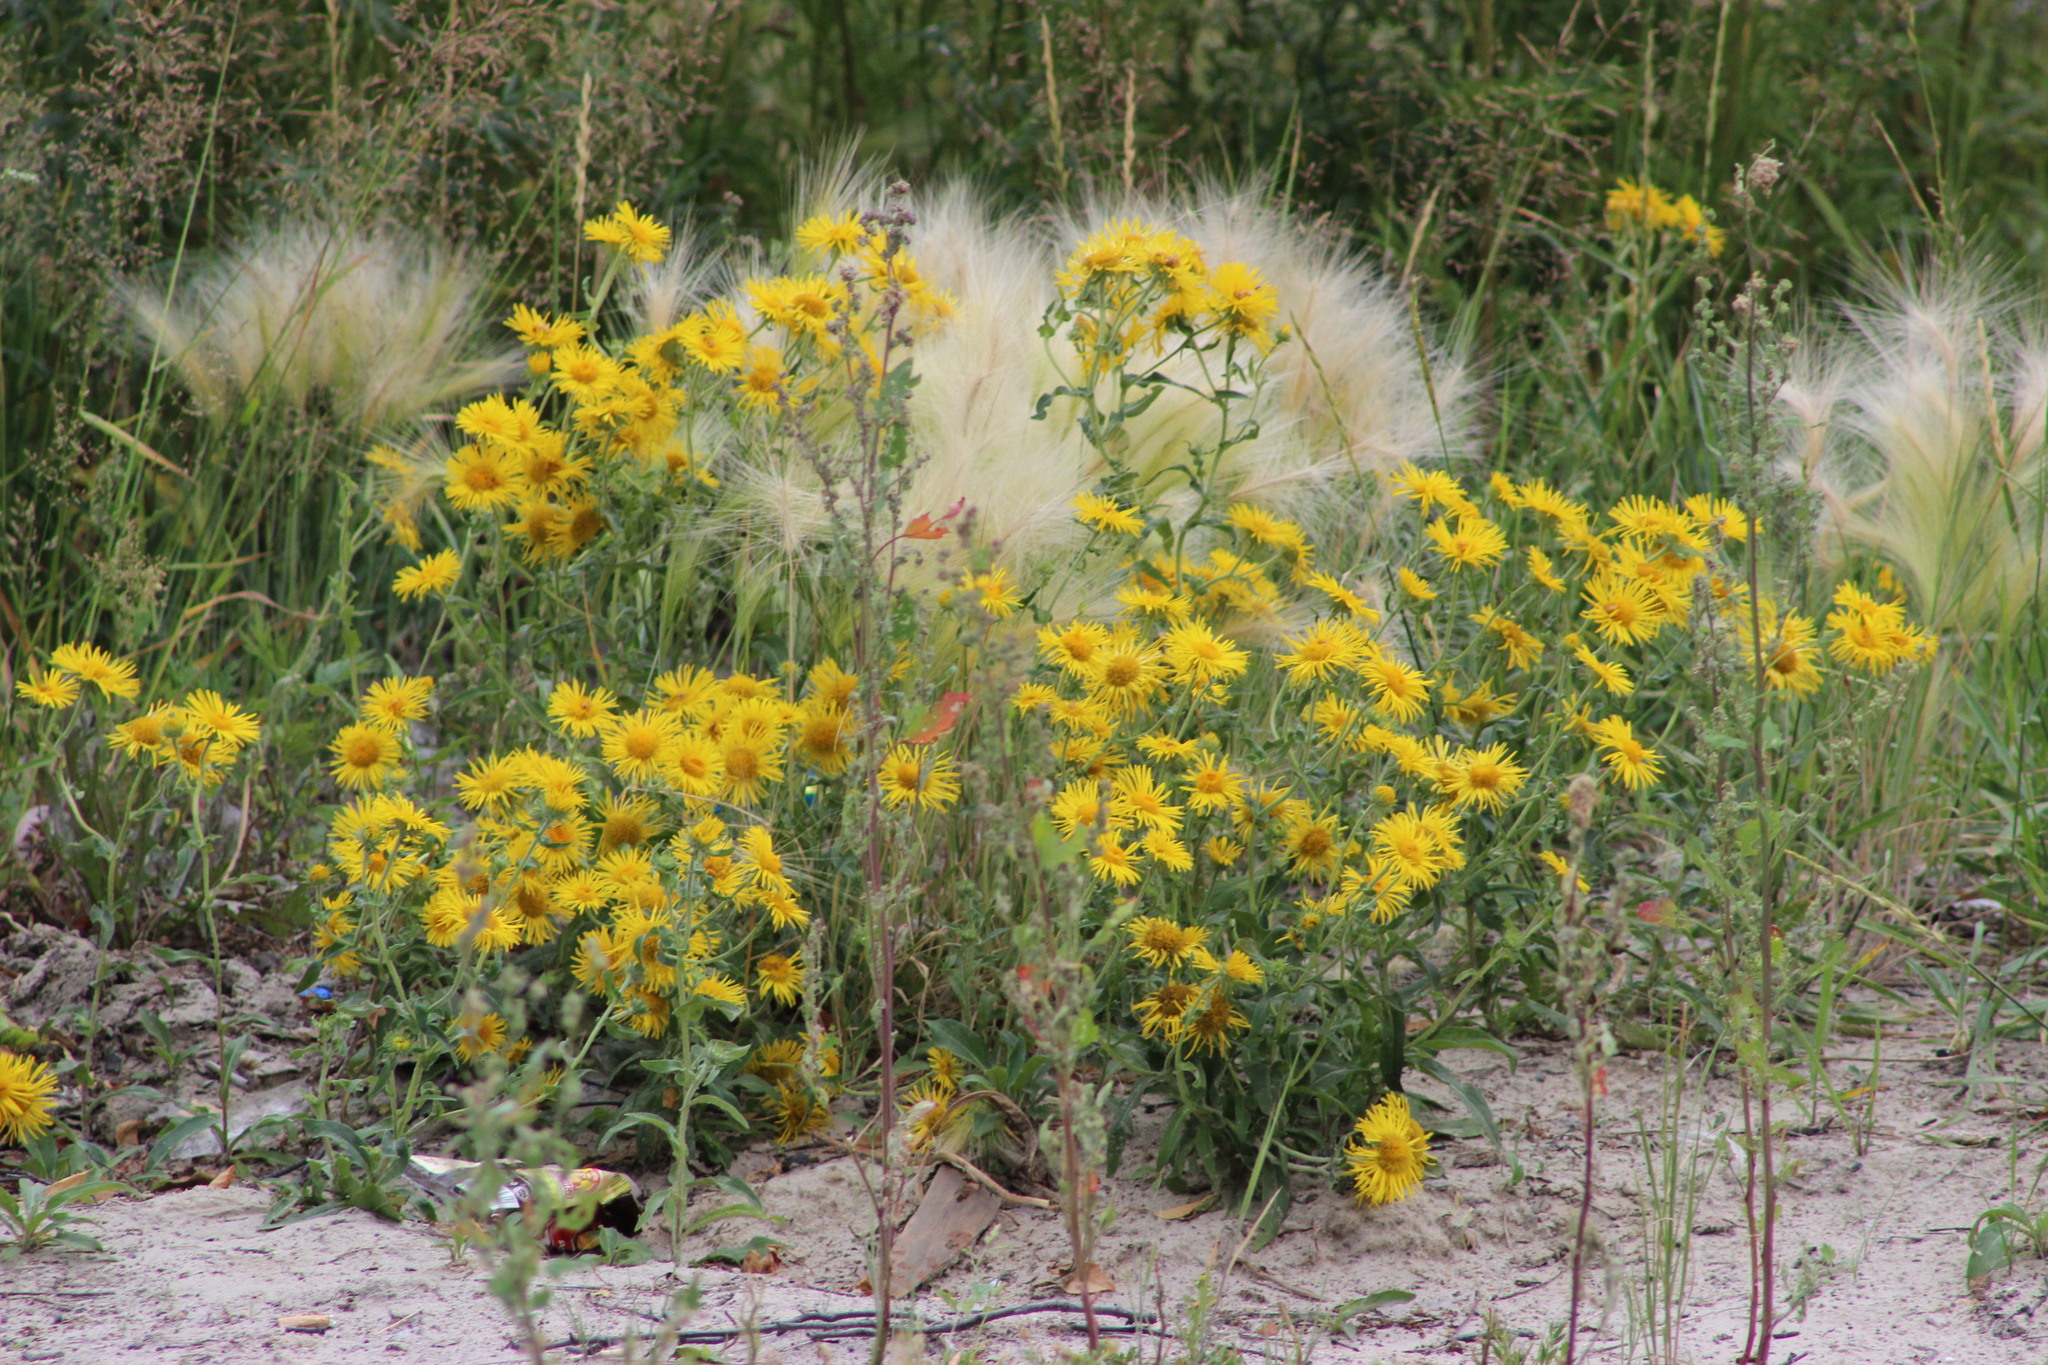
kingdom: Plantae
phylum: Tracheophyta
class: Magnoliopsida
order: Asterales
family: Asteraceae
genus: Pentanema
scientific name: Pentanema britannicum
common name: British elecampane
